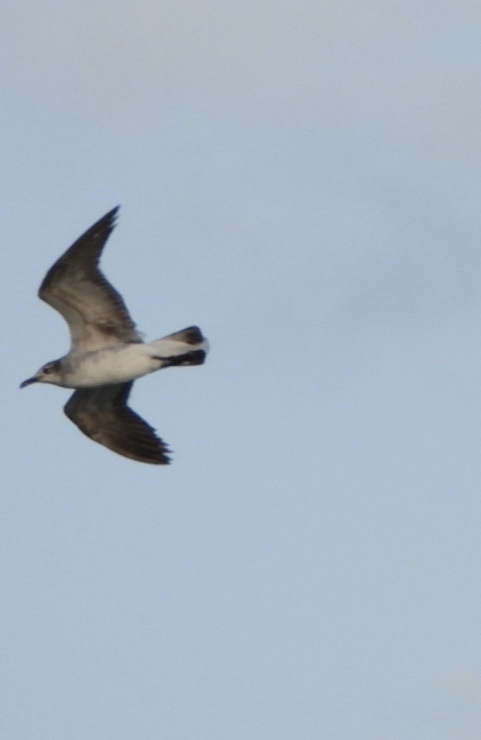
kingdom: Animalia
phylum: Chordata
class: Aves
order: Charadriiformes
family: Laridae
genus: Leucophaeus
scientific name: Leucophaeus atricilla
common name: Laughing gull
